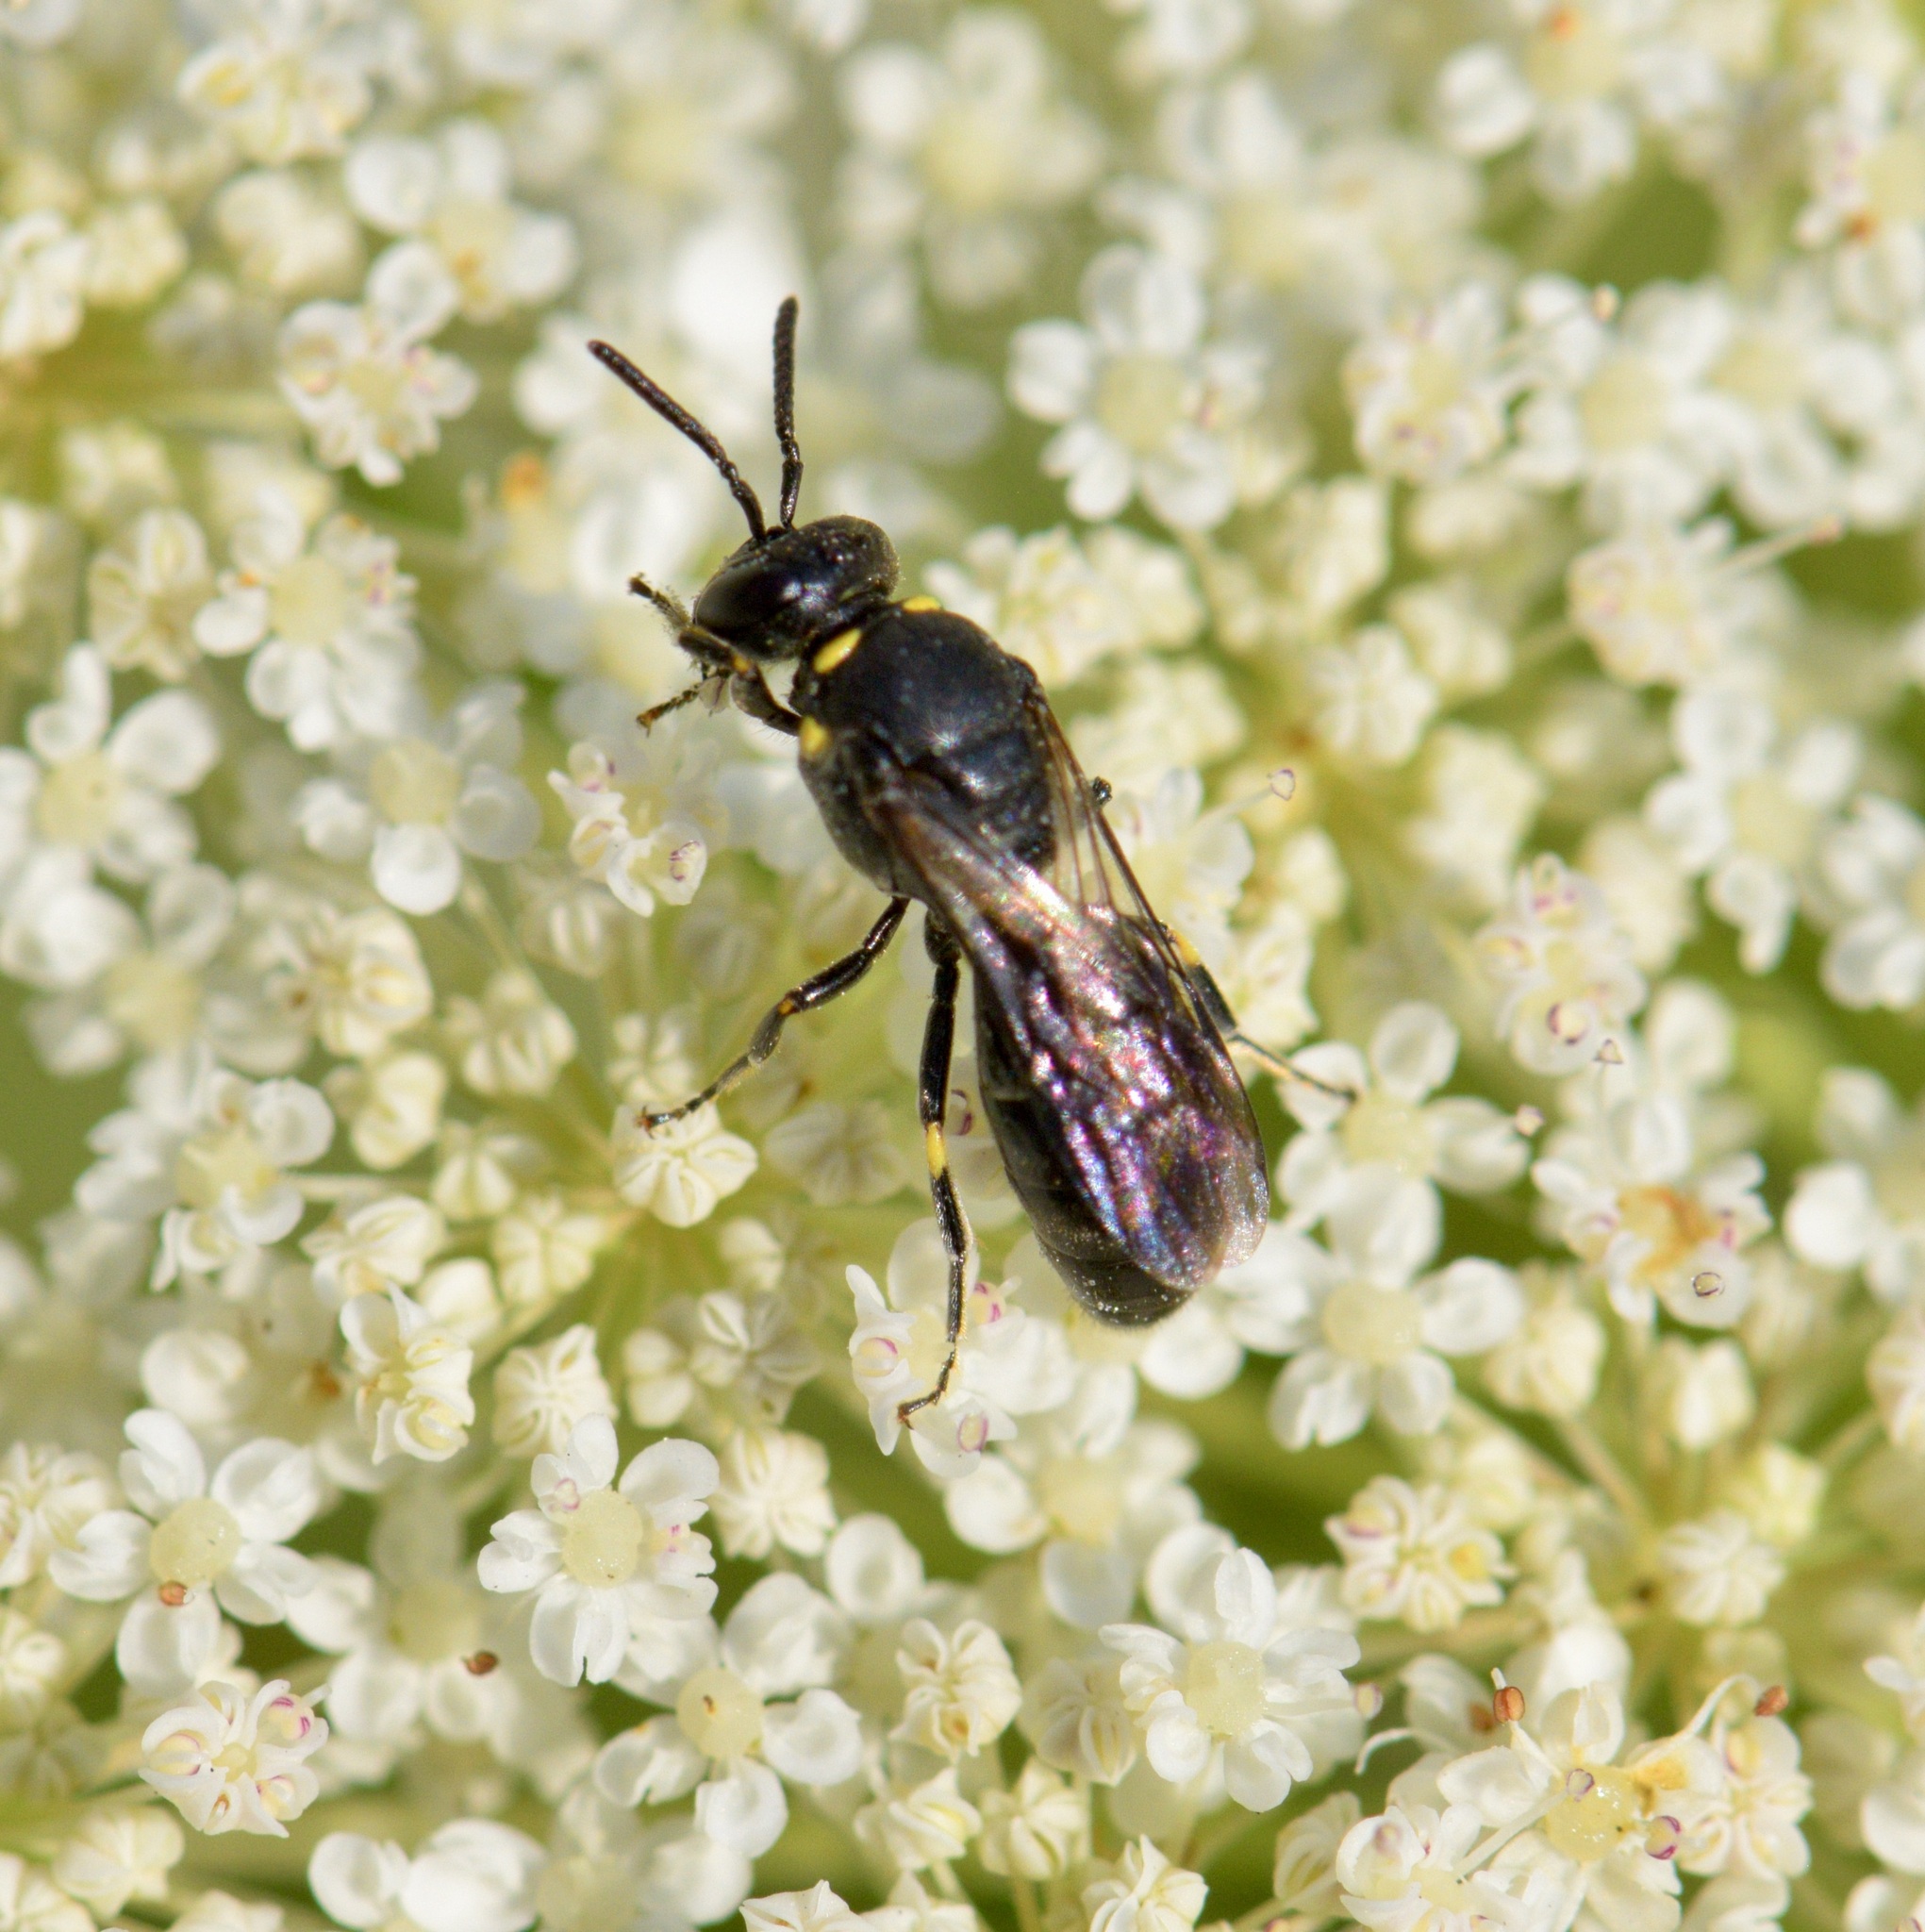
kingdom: Animalia
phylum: Arthropoda
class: Insecta
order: Hymenoptera
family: Colletidae
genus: Hylaeus
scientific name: Hylaeus modestus
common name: Yellow-faced bee
